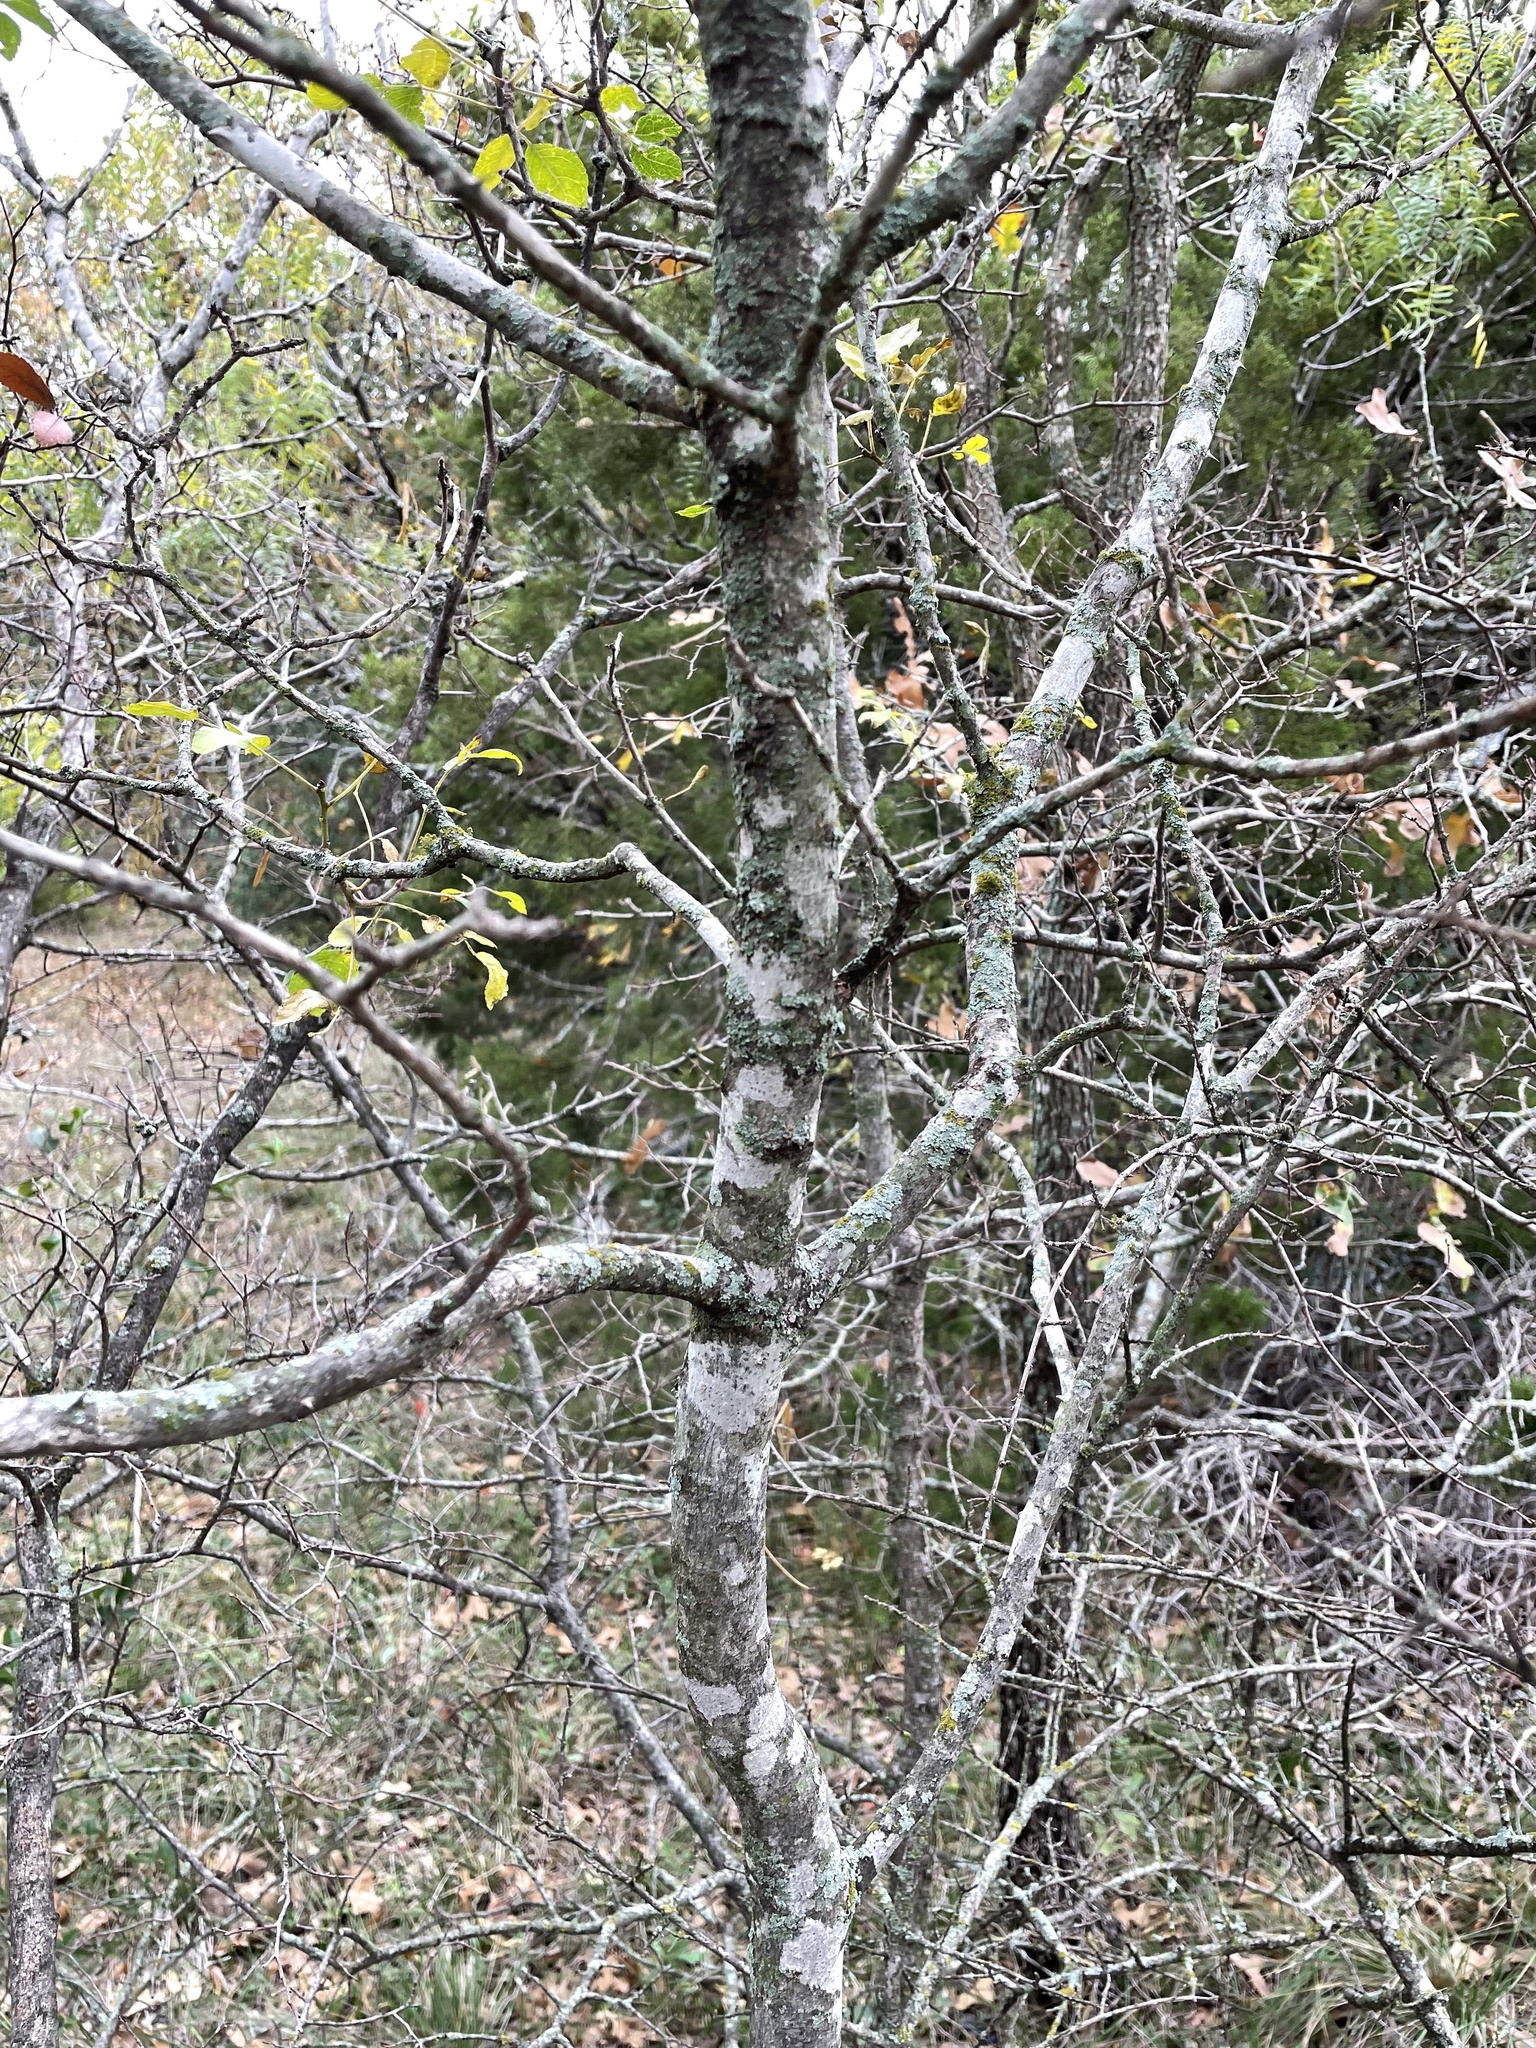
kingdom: Plantae
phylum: Tracheophyta
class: Magnoliopsida
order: Sapindales
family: Rutaceae
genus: Zanthoxylum
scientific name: Zanthoxylum clava-herculis
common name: Hercules'-club
